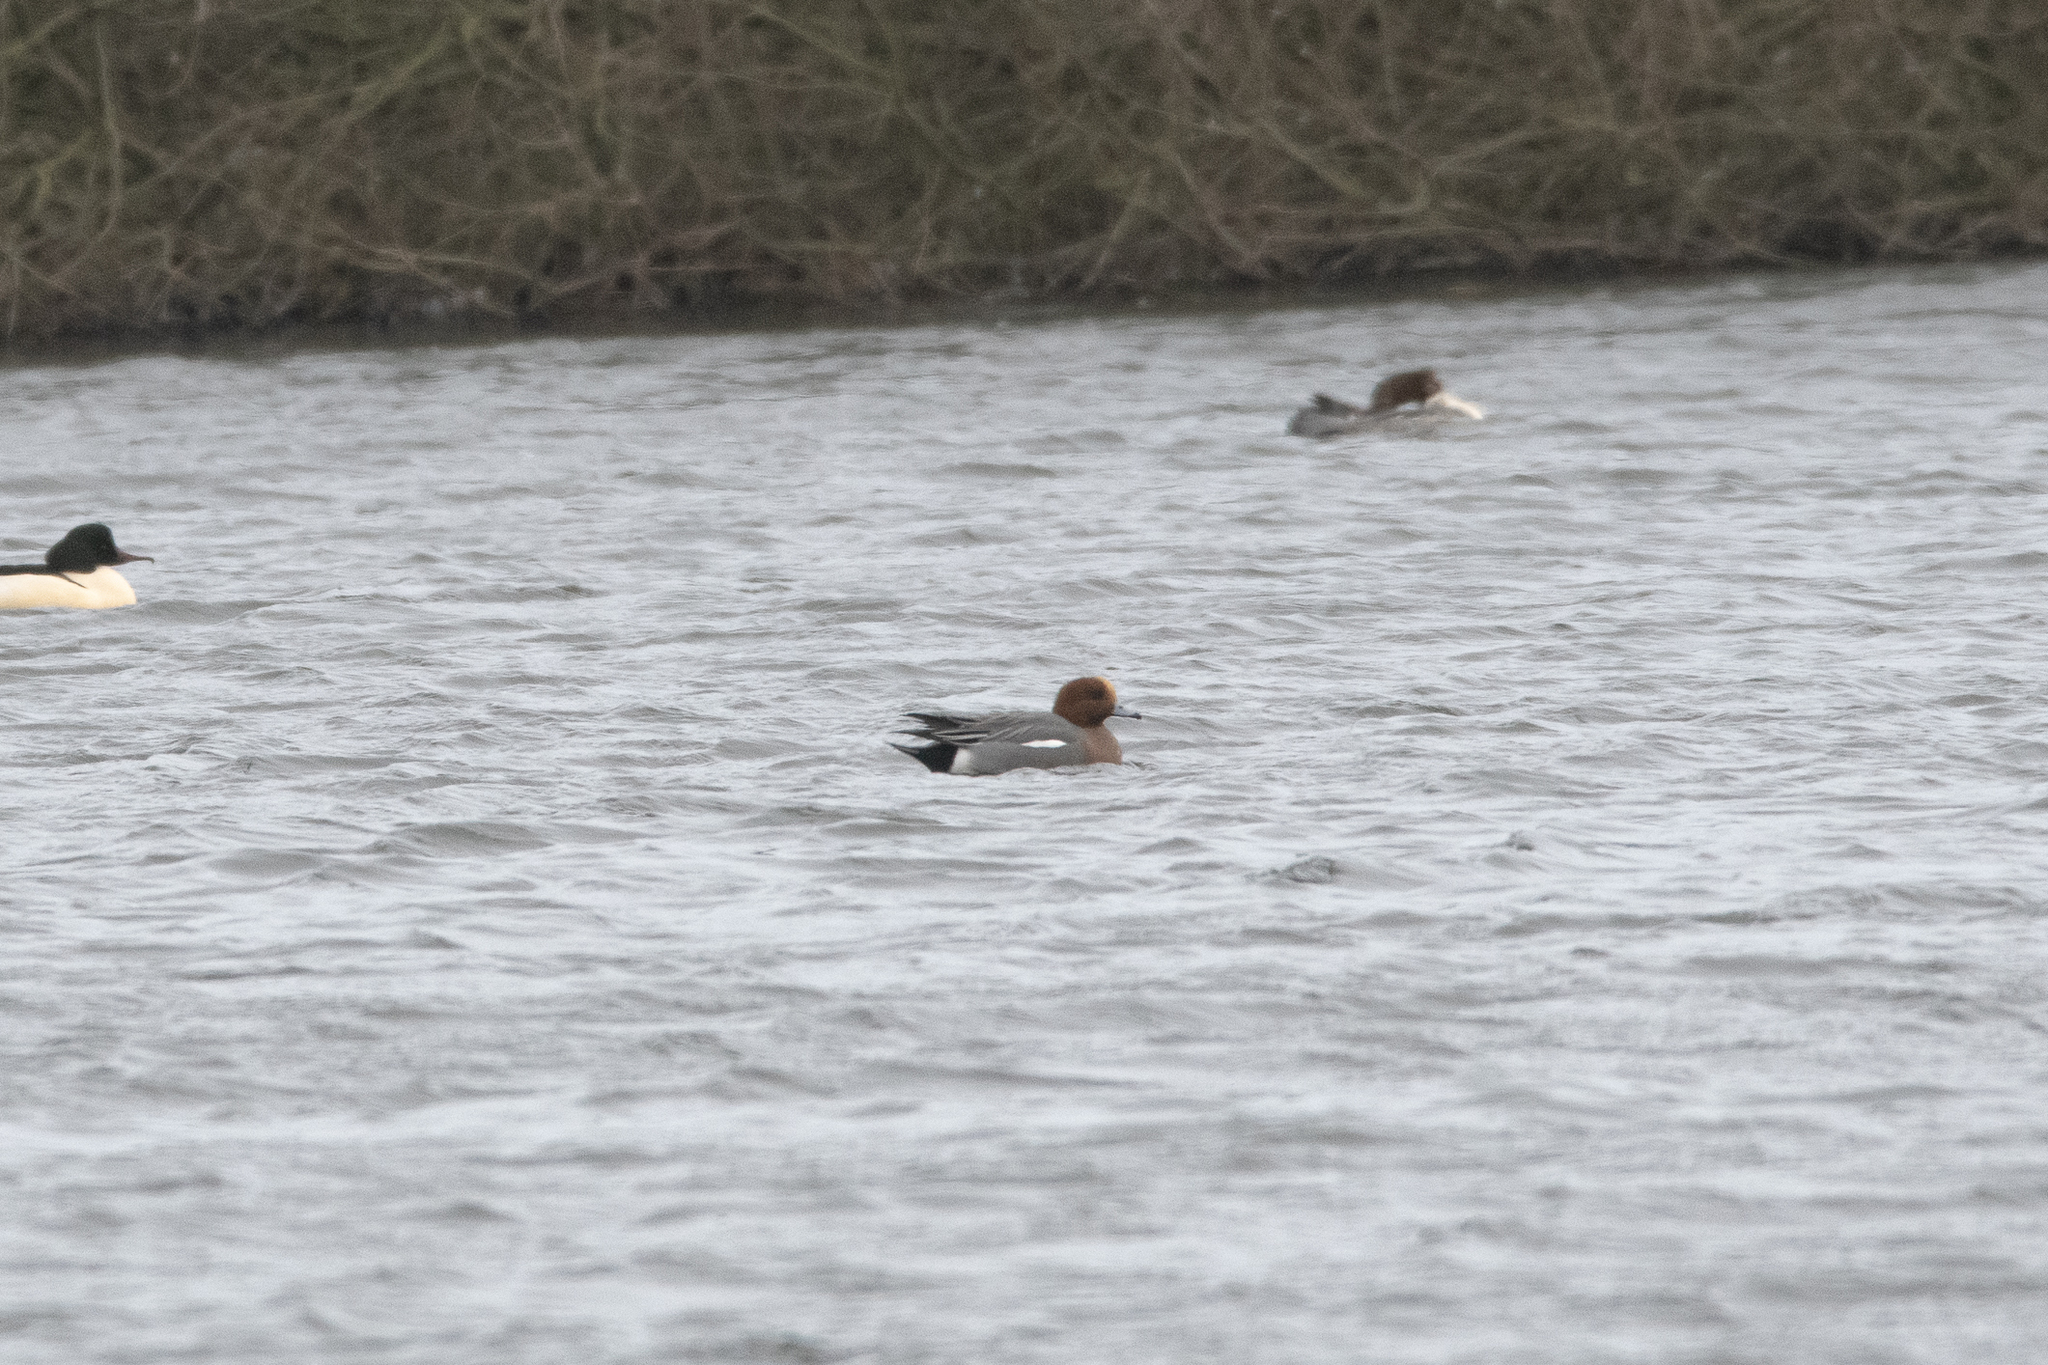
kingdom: Animalia
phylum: Chordata
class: Aves
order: Anseriformes
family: Anatidae
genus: Mareca
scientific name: Mareca penelope
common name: Eurasian wigeon
